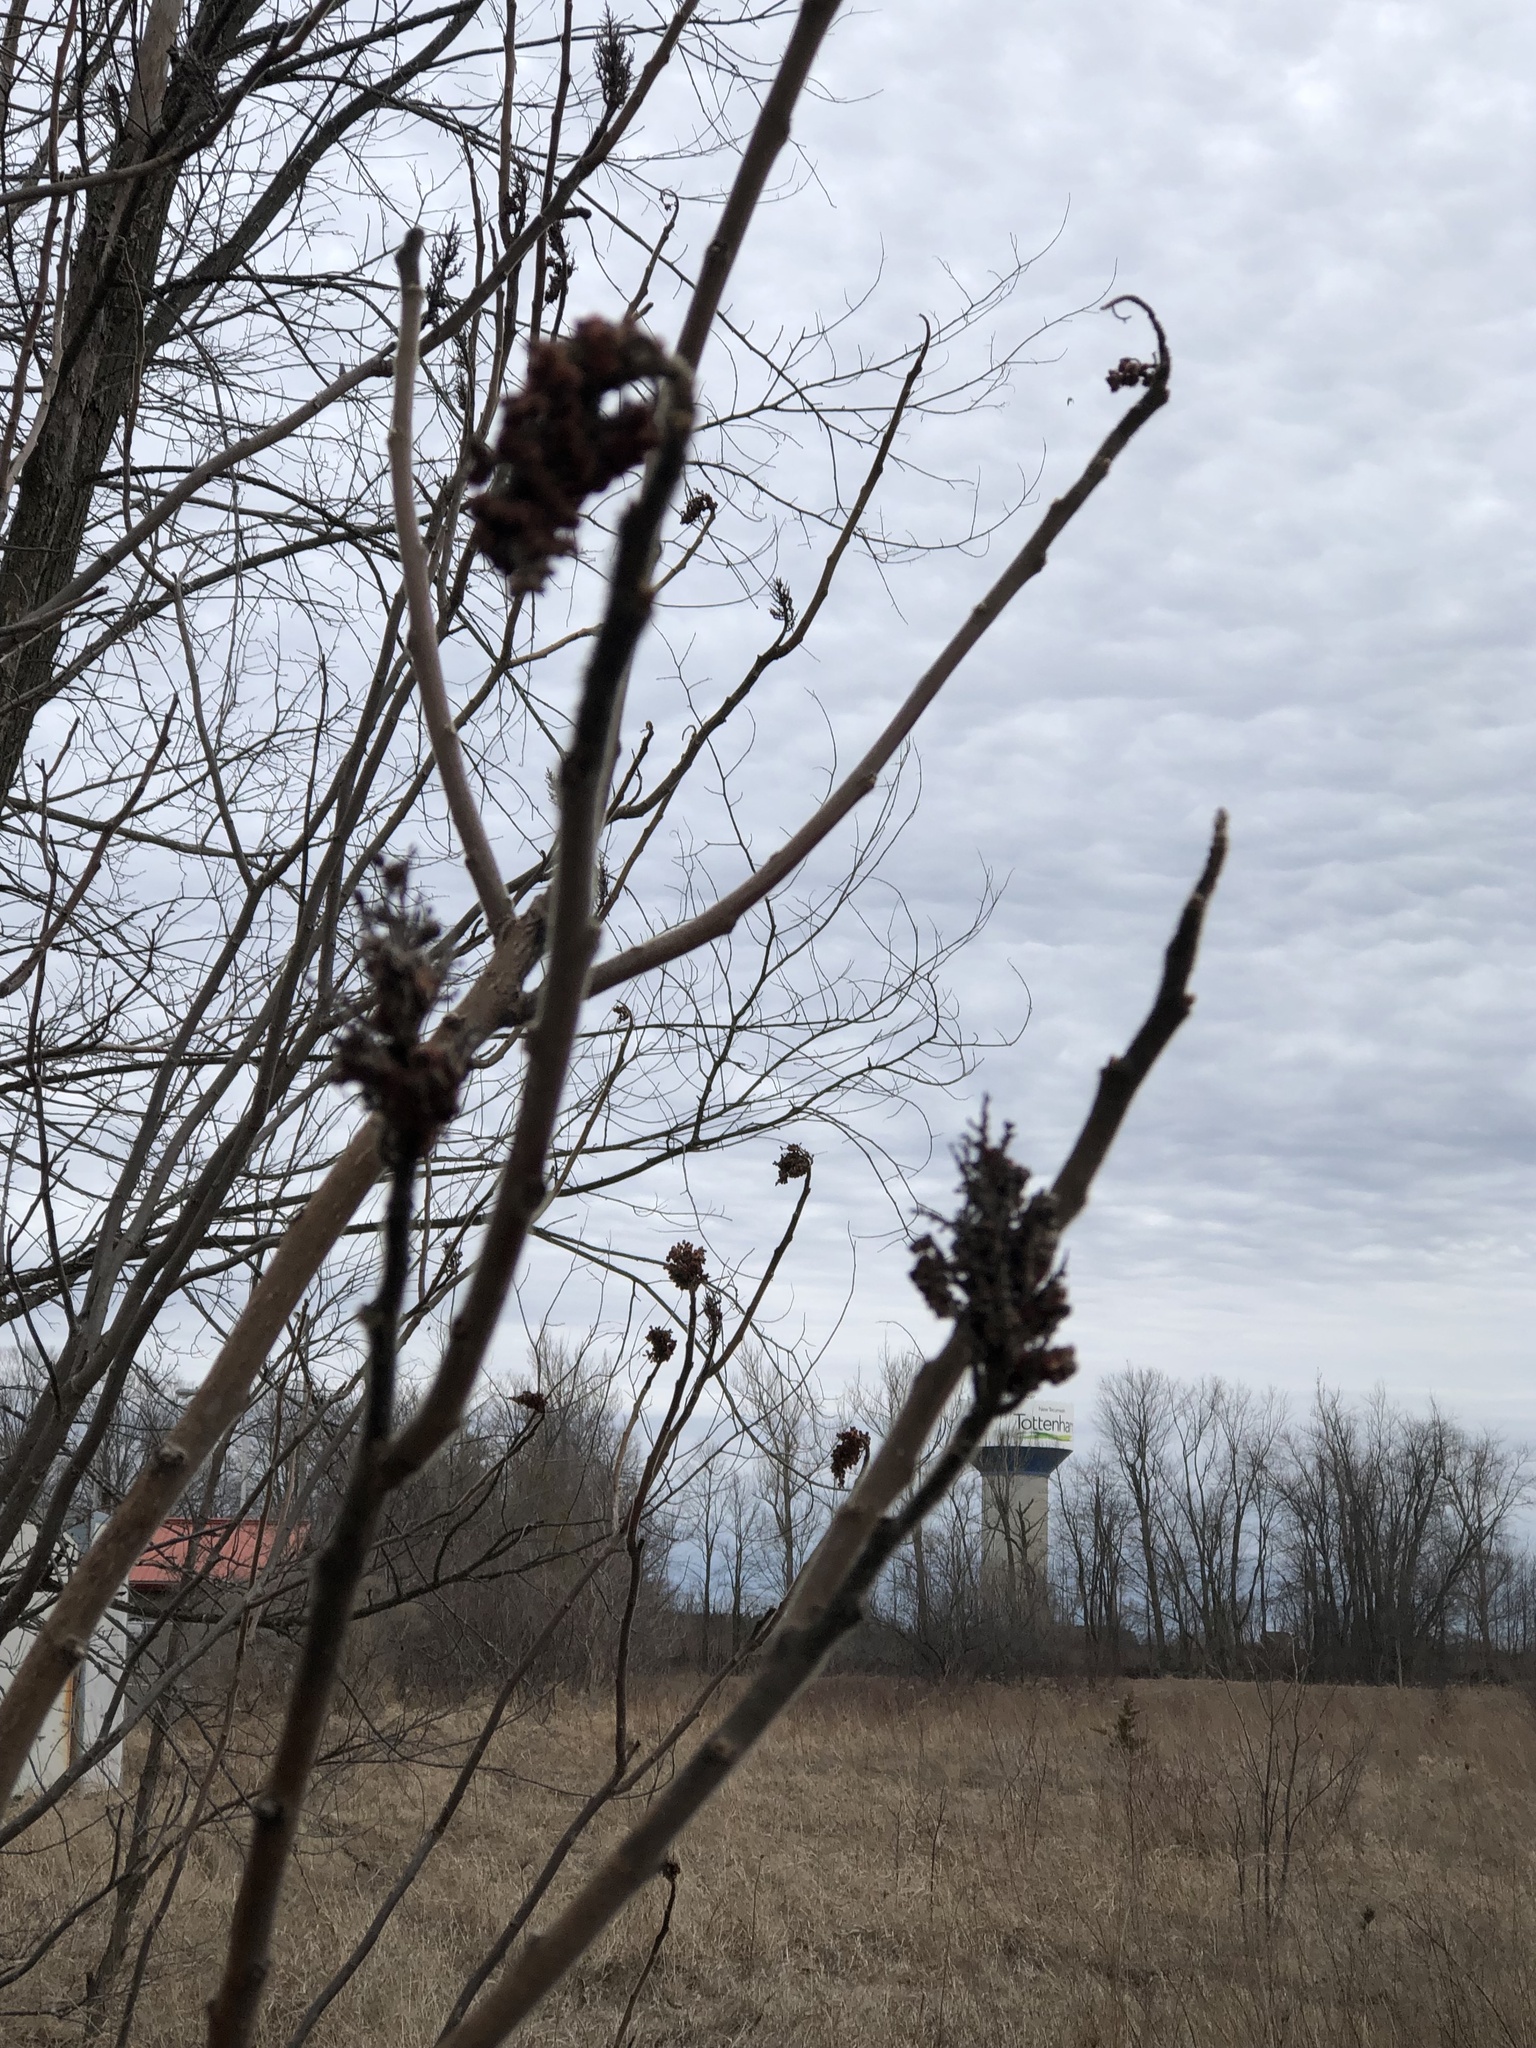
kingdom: Plantae
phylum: Tracheophyta
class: Magnoliopsida
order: Sapindales
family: Anacardiaceae
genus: Rhus
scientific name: Rhus typhina
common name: Staghorn sumac
